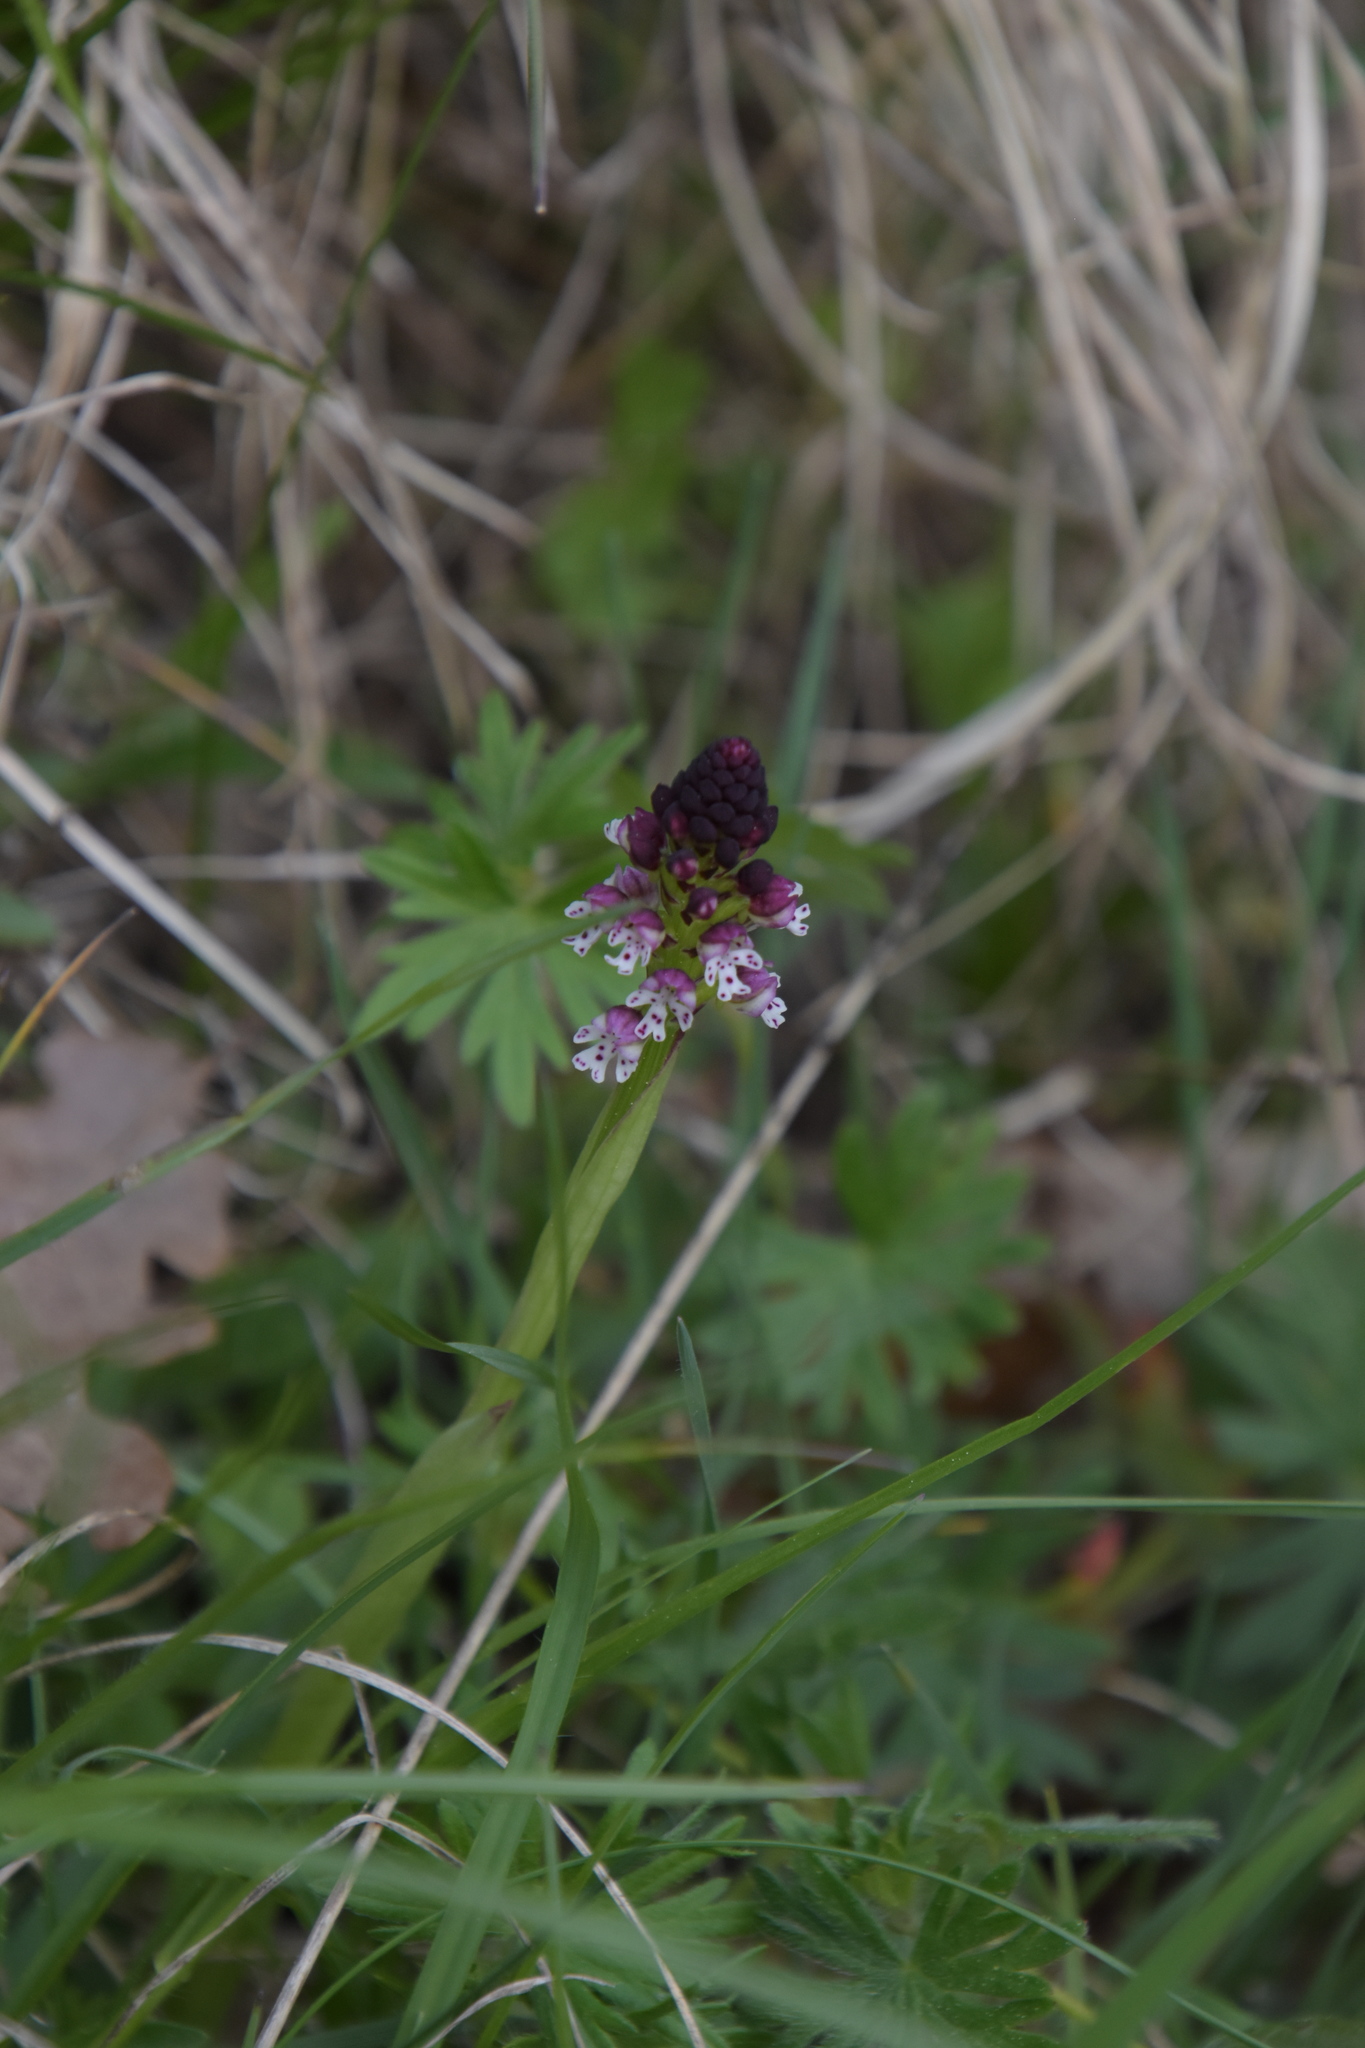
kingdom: Plantae
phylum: Tracheophyta
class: Liliopsida
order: Asparagales
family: Orchidaceae
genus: Neotinea
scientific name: Neotinea ustulata
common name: Burnt orchid
